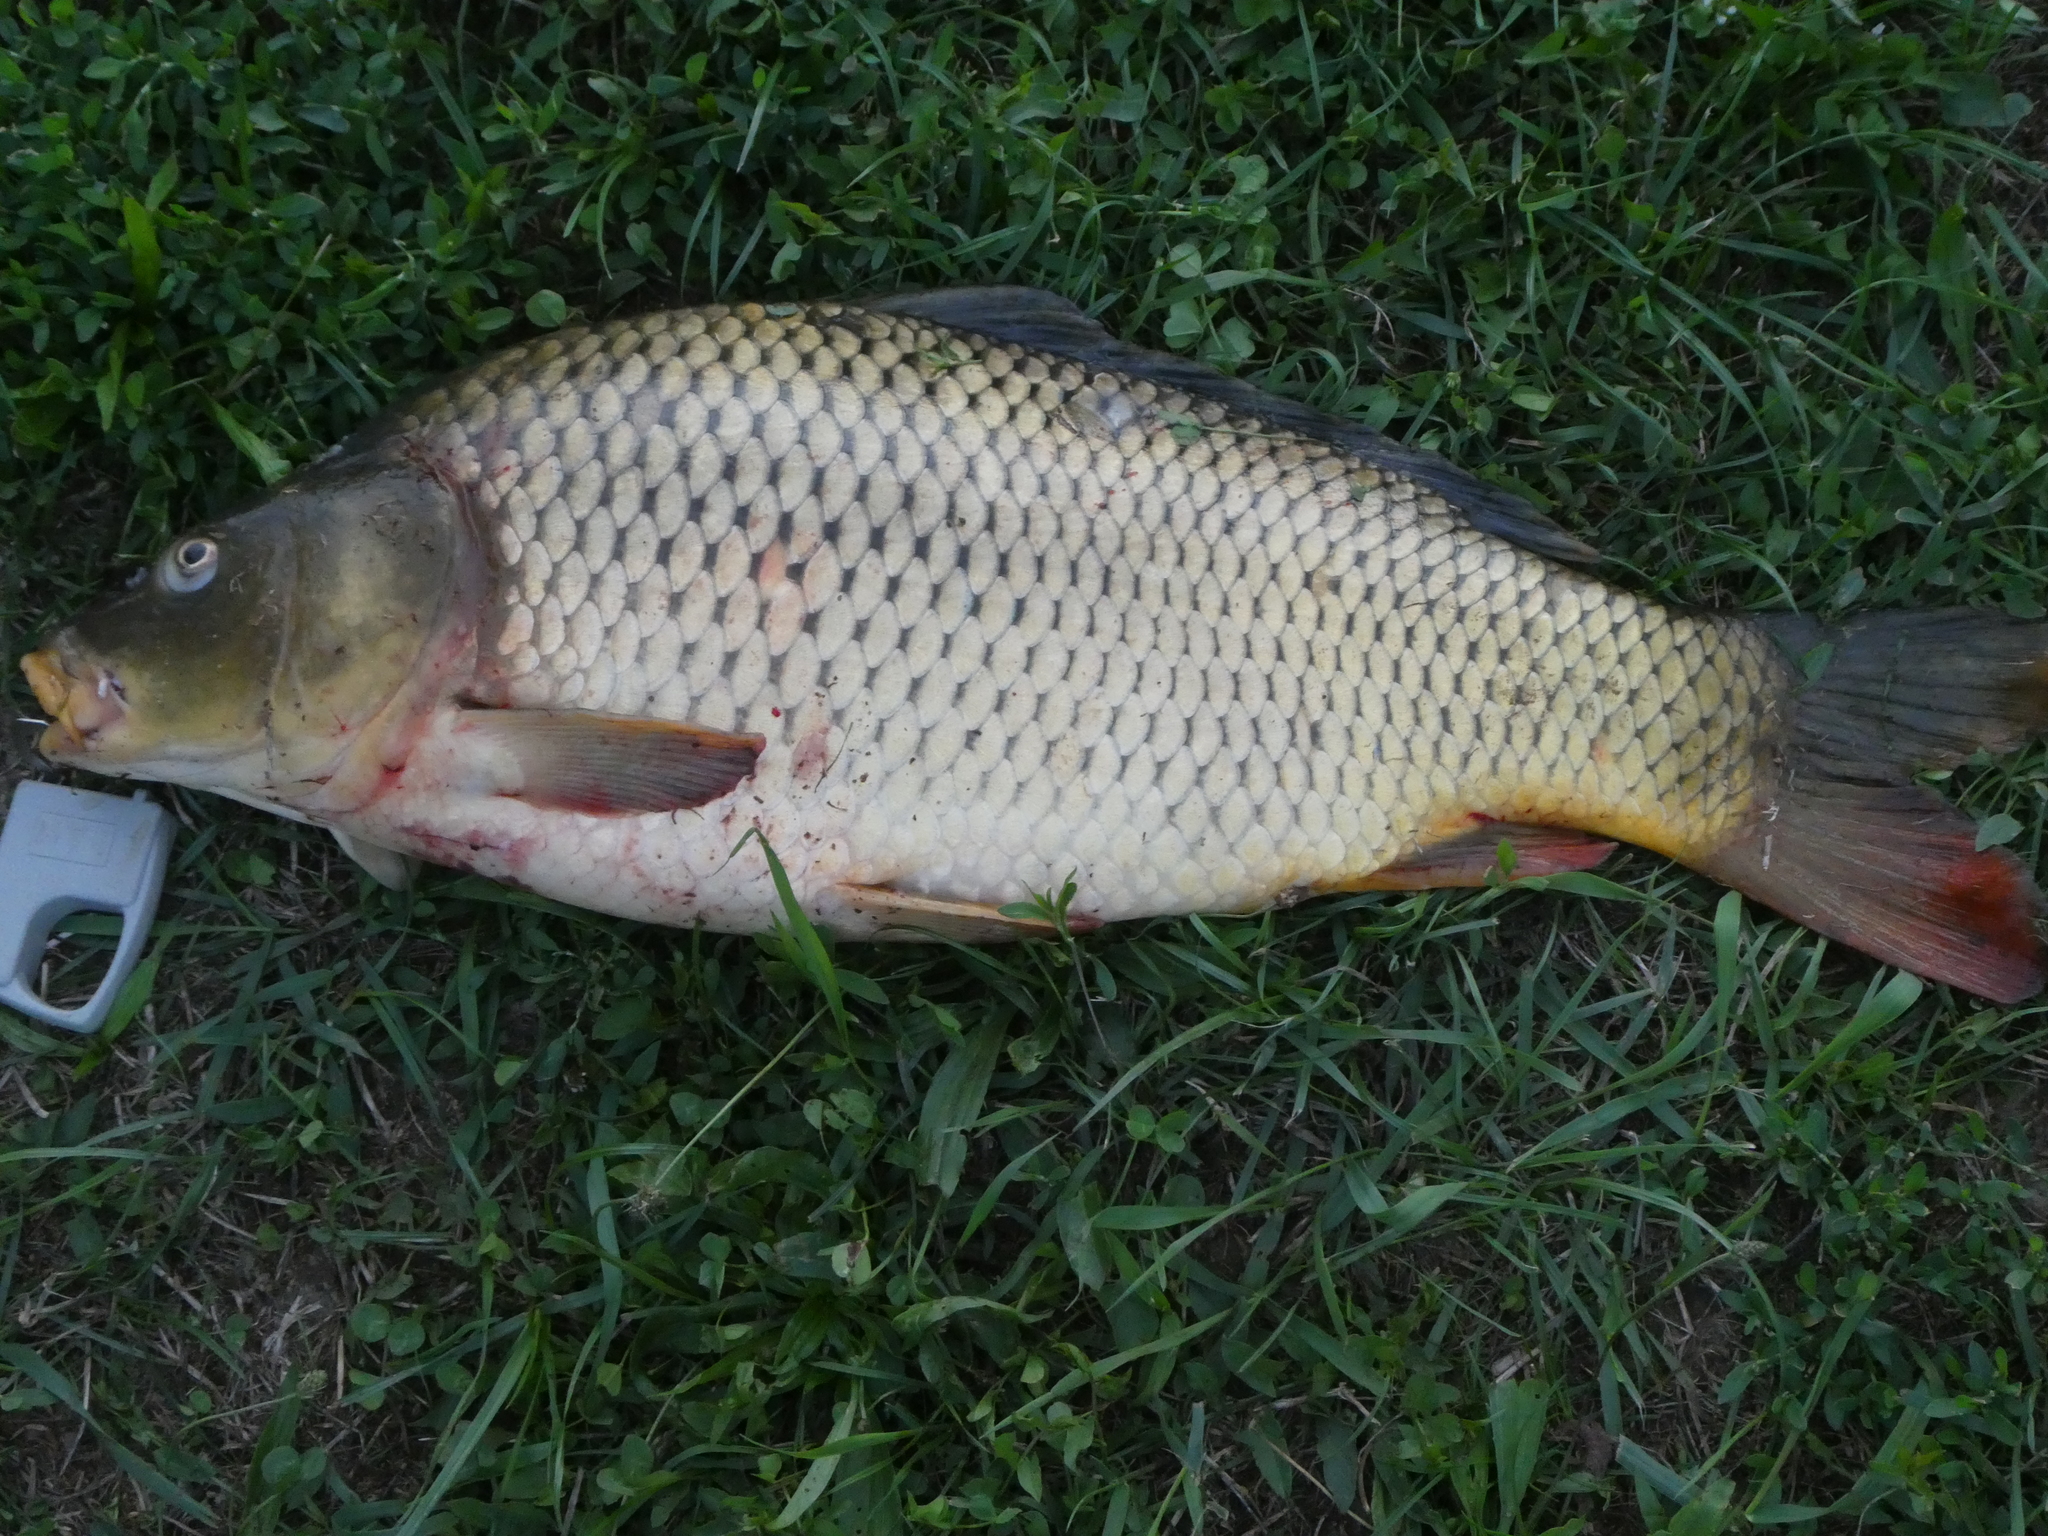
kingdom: Animalia
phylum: Chordata
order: Cypriniformes
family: Cyprinidae
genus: Cyprinus
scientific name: Cyprinus carpio
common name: Common carp
